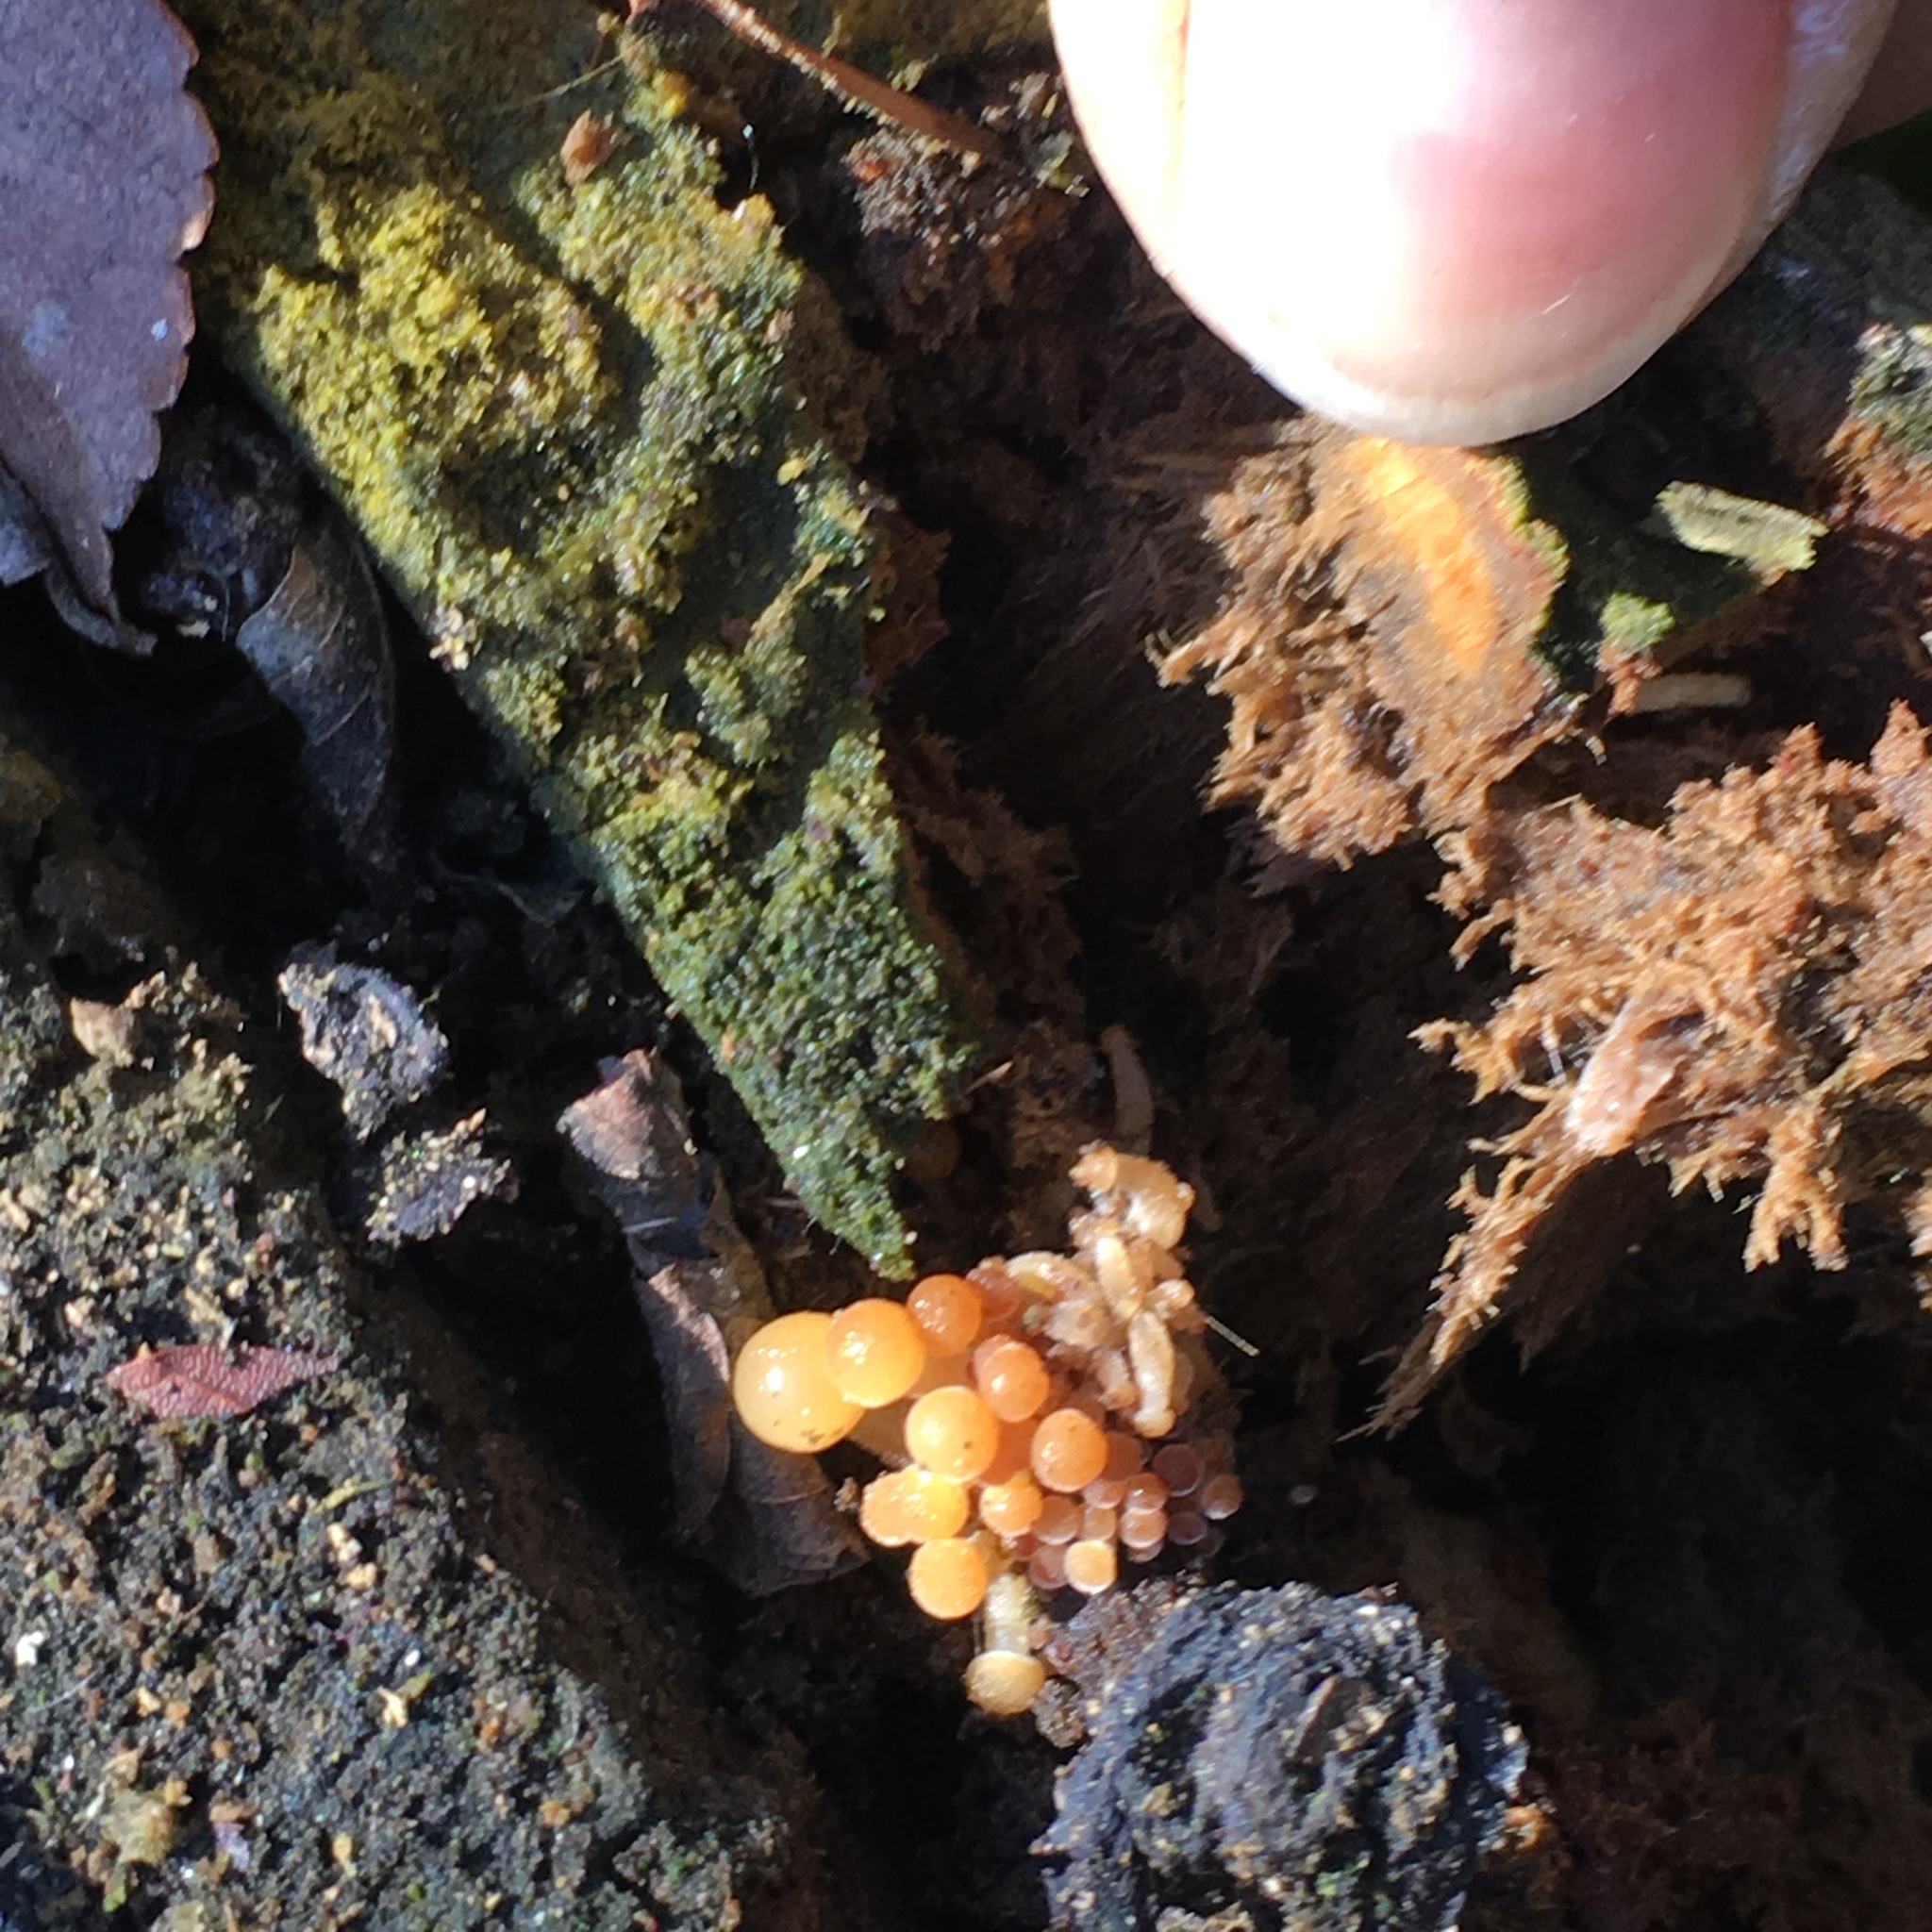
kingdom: Fungi
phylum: Basidiomycota
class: Agaricomycetes
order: Agaricales
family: Physalacriaceae
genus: Flammulina
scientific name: Flammulina velutipes
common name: Velvet shank
